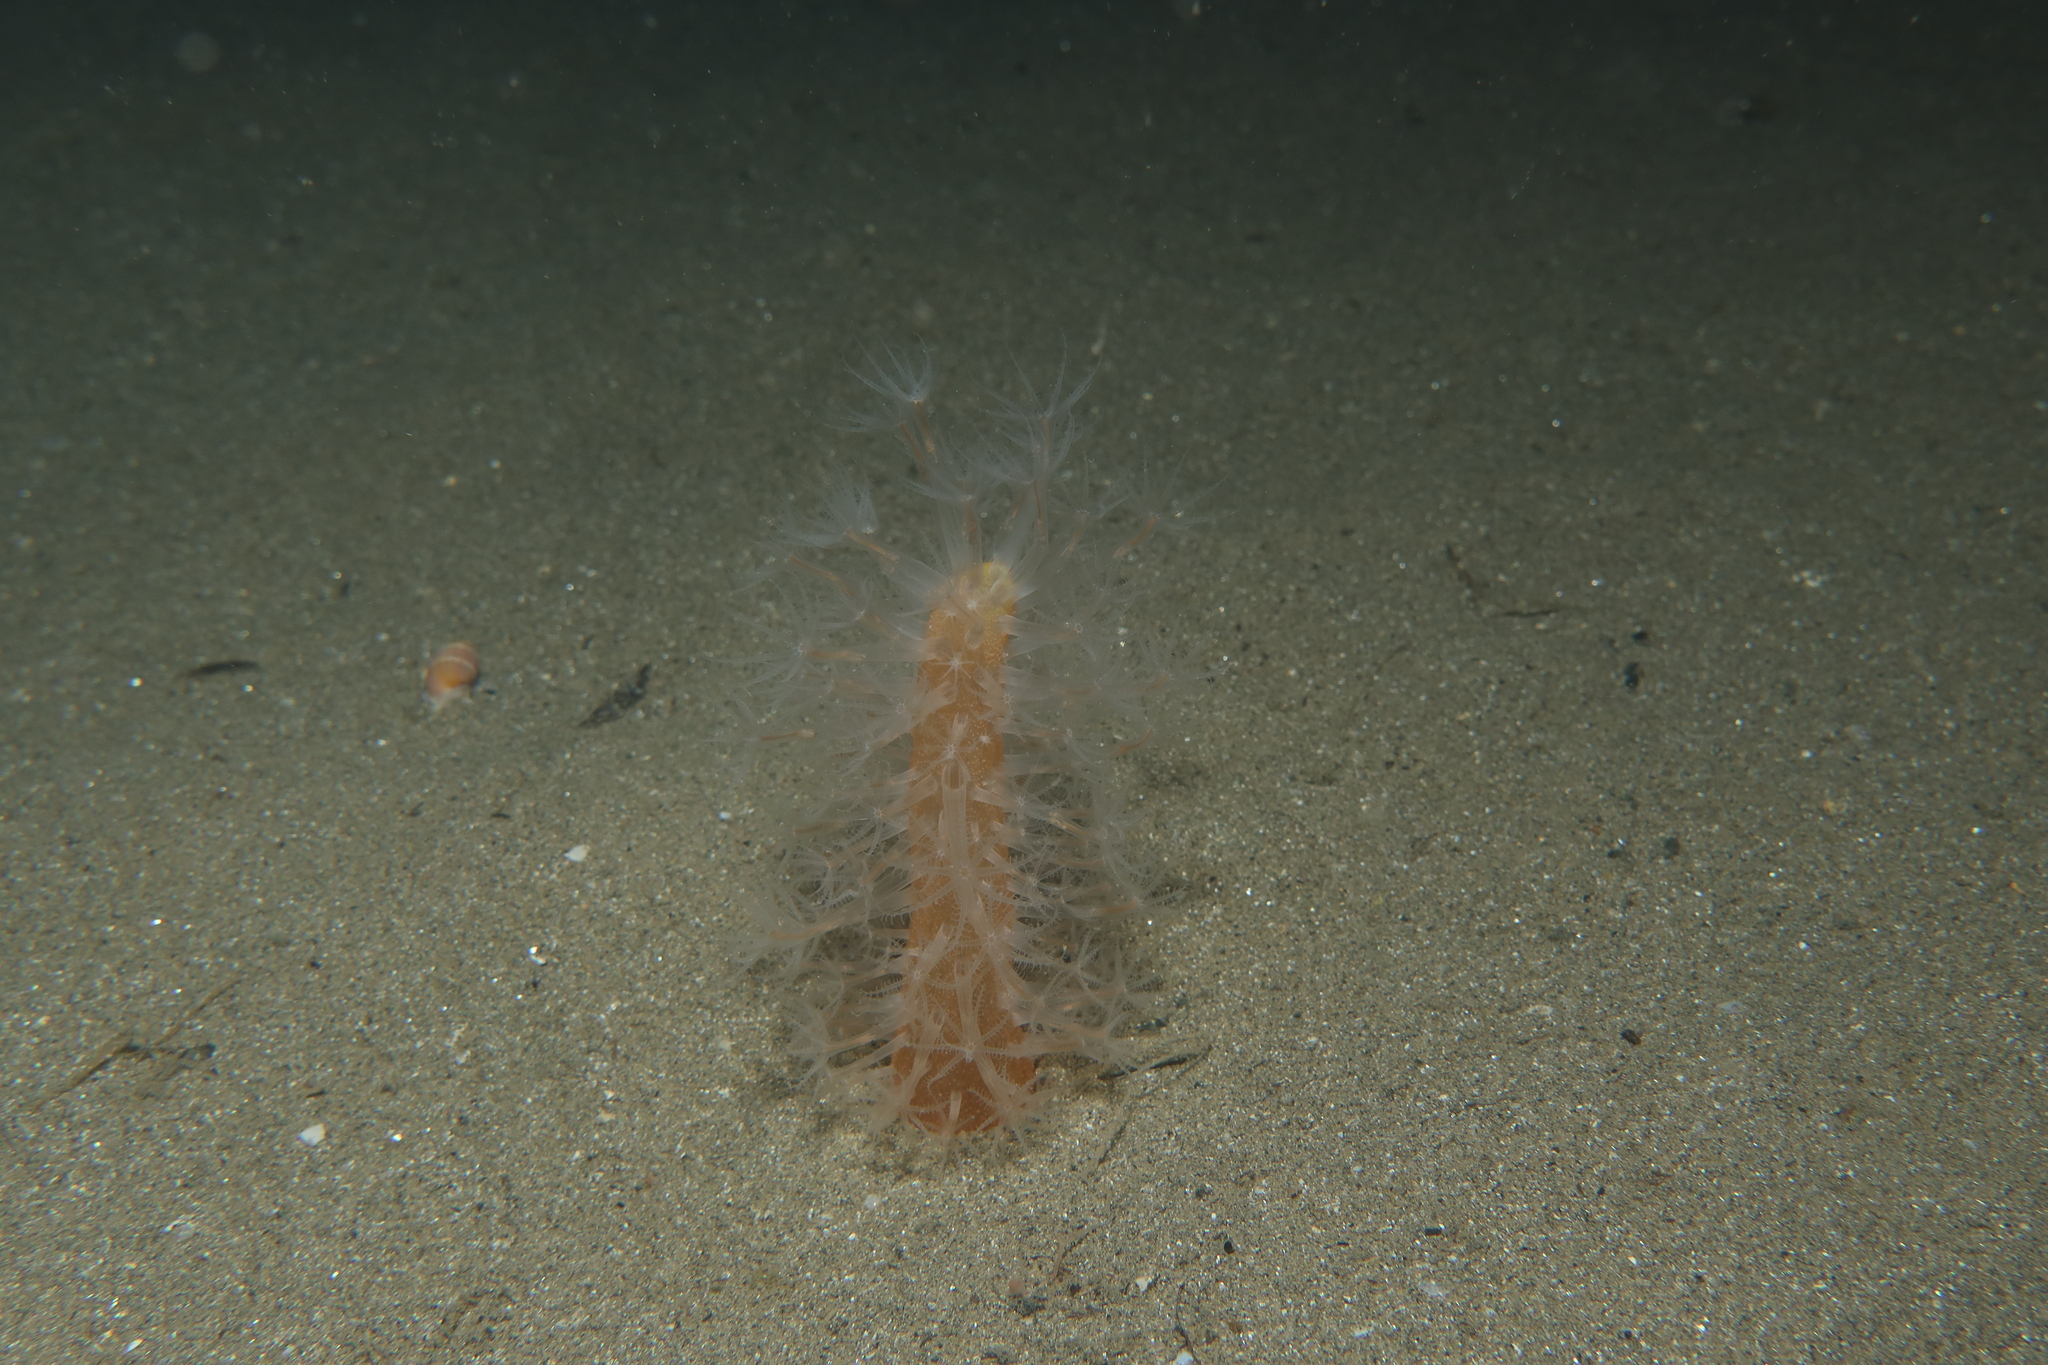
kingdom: Animalia
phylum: Cnidaria
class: Anthozoa
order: Scleralcyonacea
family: Veretillidae
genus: Veretillum
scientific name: Veretillum cynomorium
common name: Finger-shaped sea-pen
